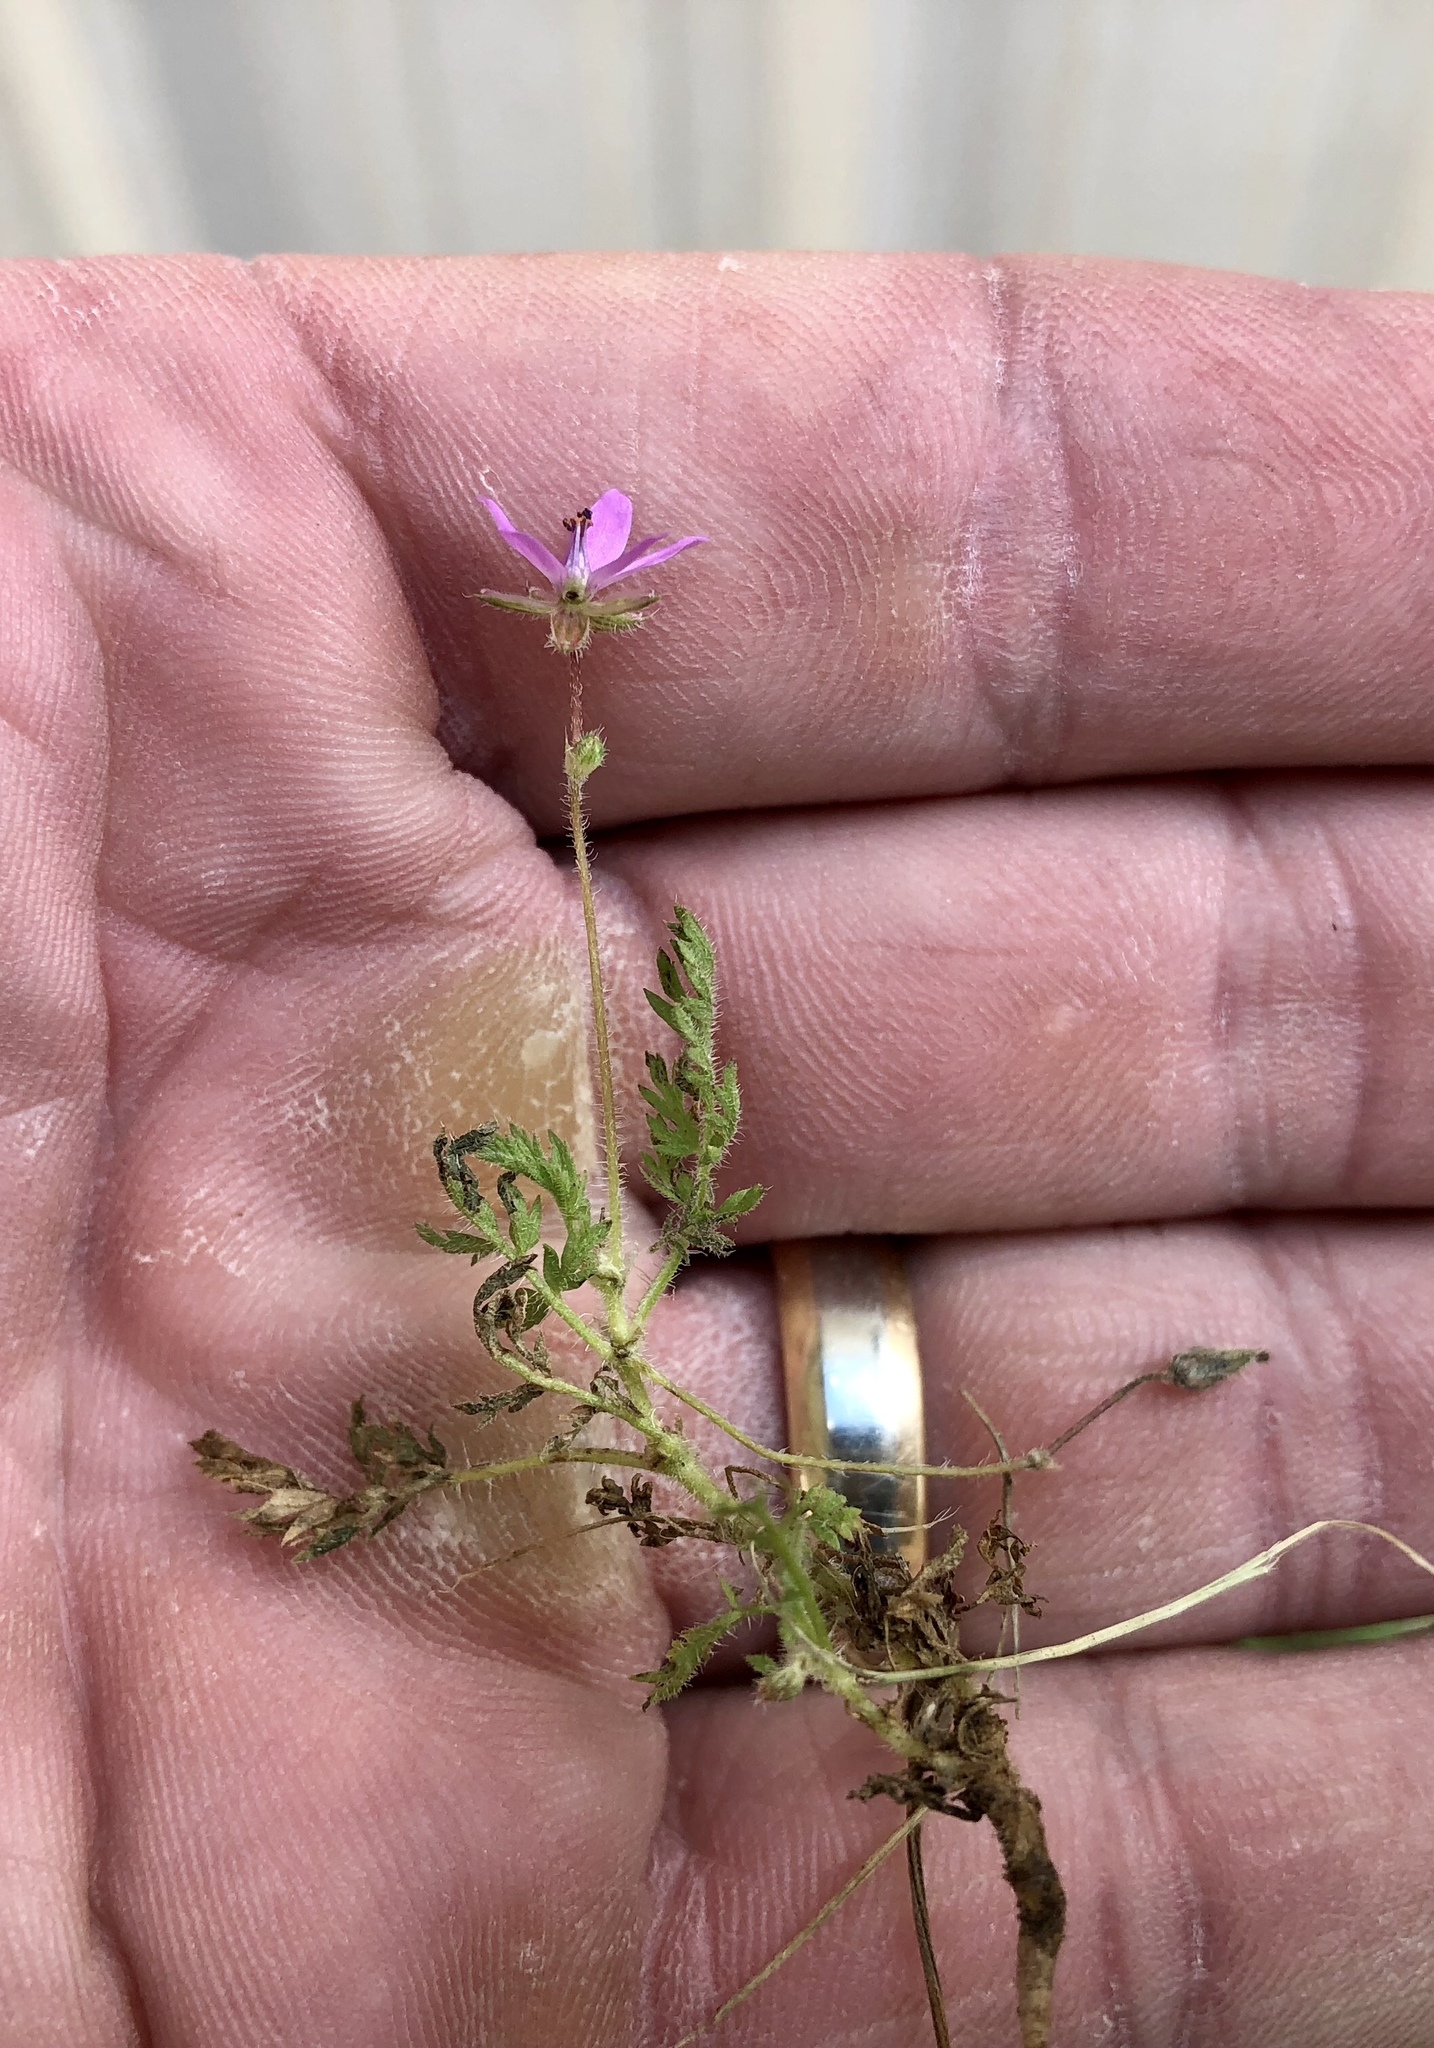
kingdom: Plantae
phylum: Tracheophyta
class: Magnoliopsida
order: Geraniales
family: Geraniaceae
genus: Erodium
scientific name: Erodium cicutarium
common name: Common stork's-bill
